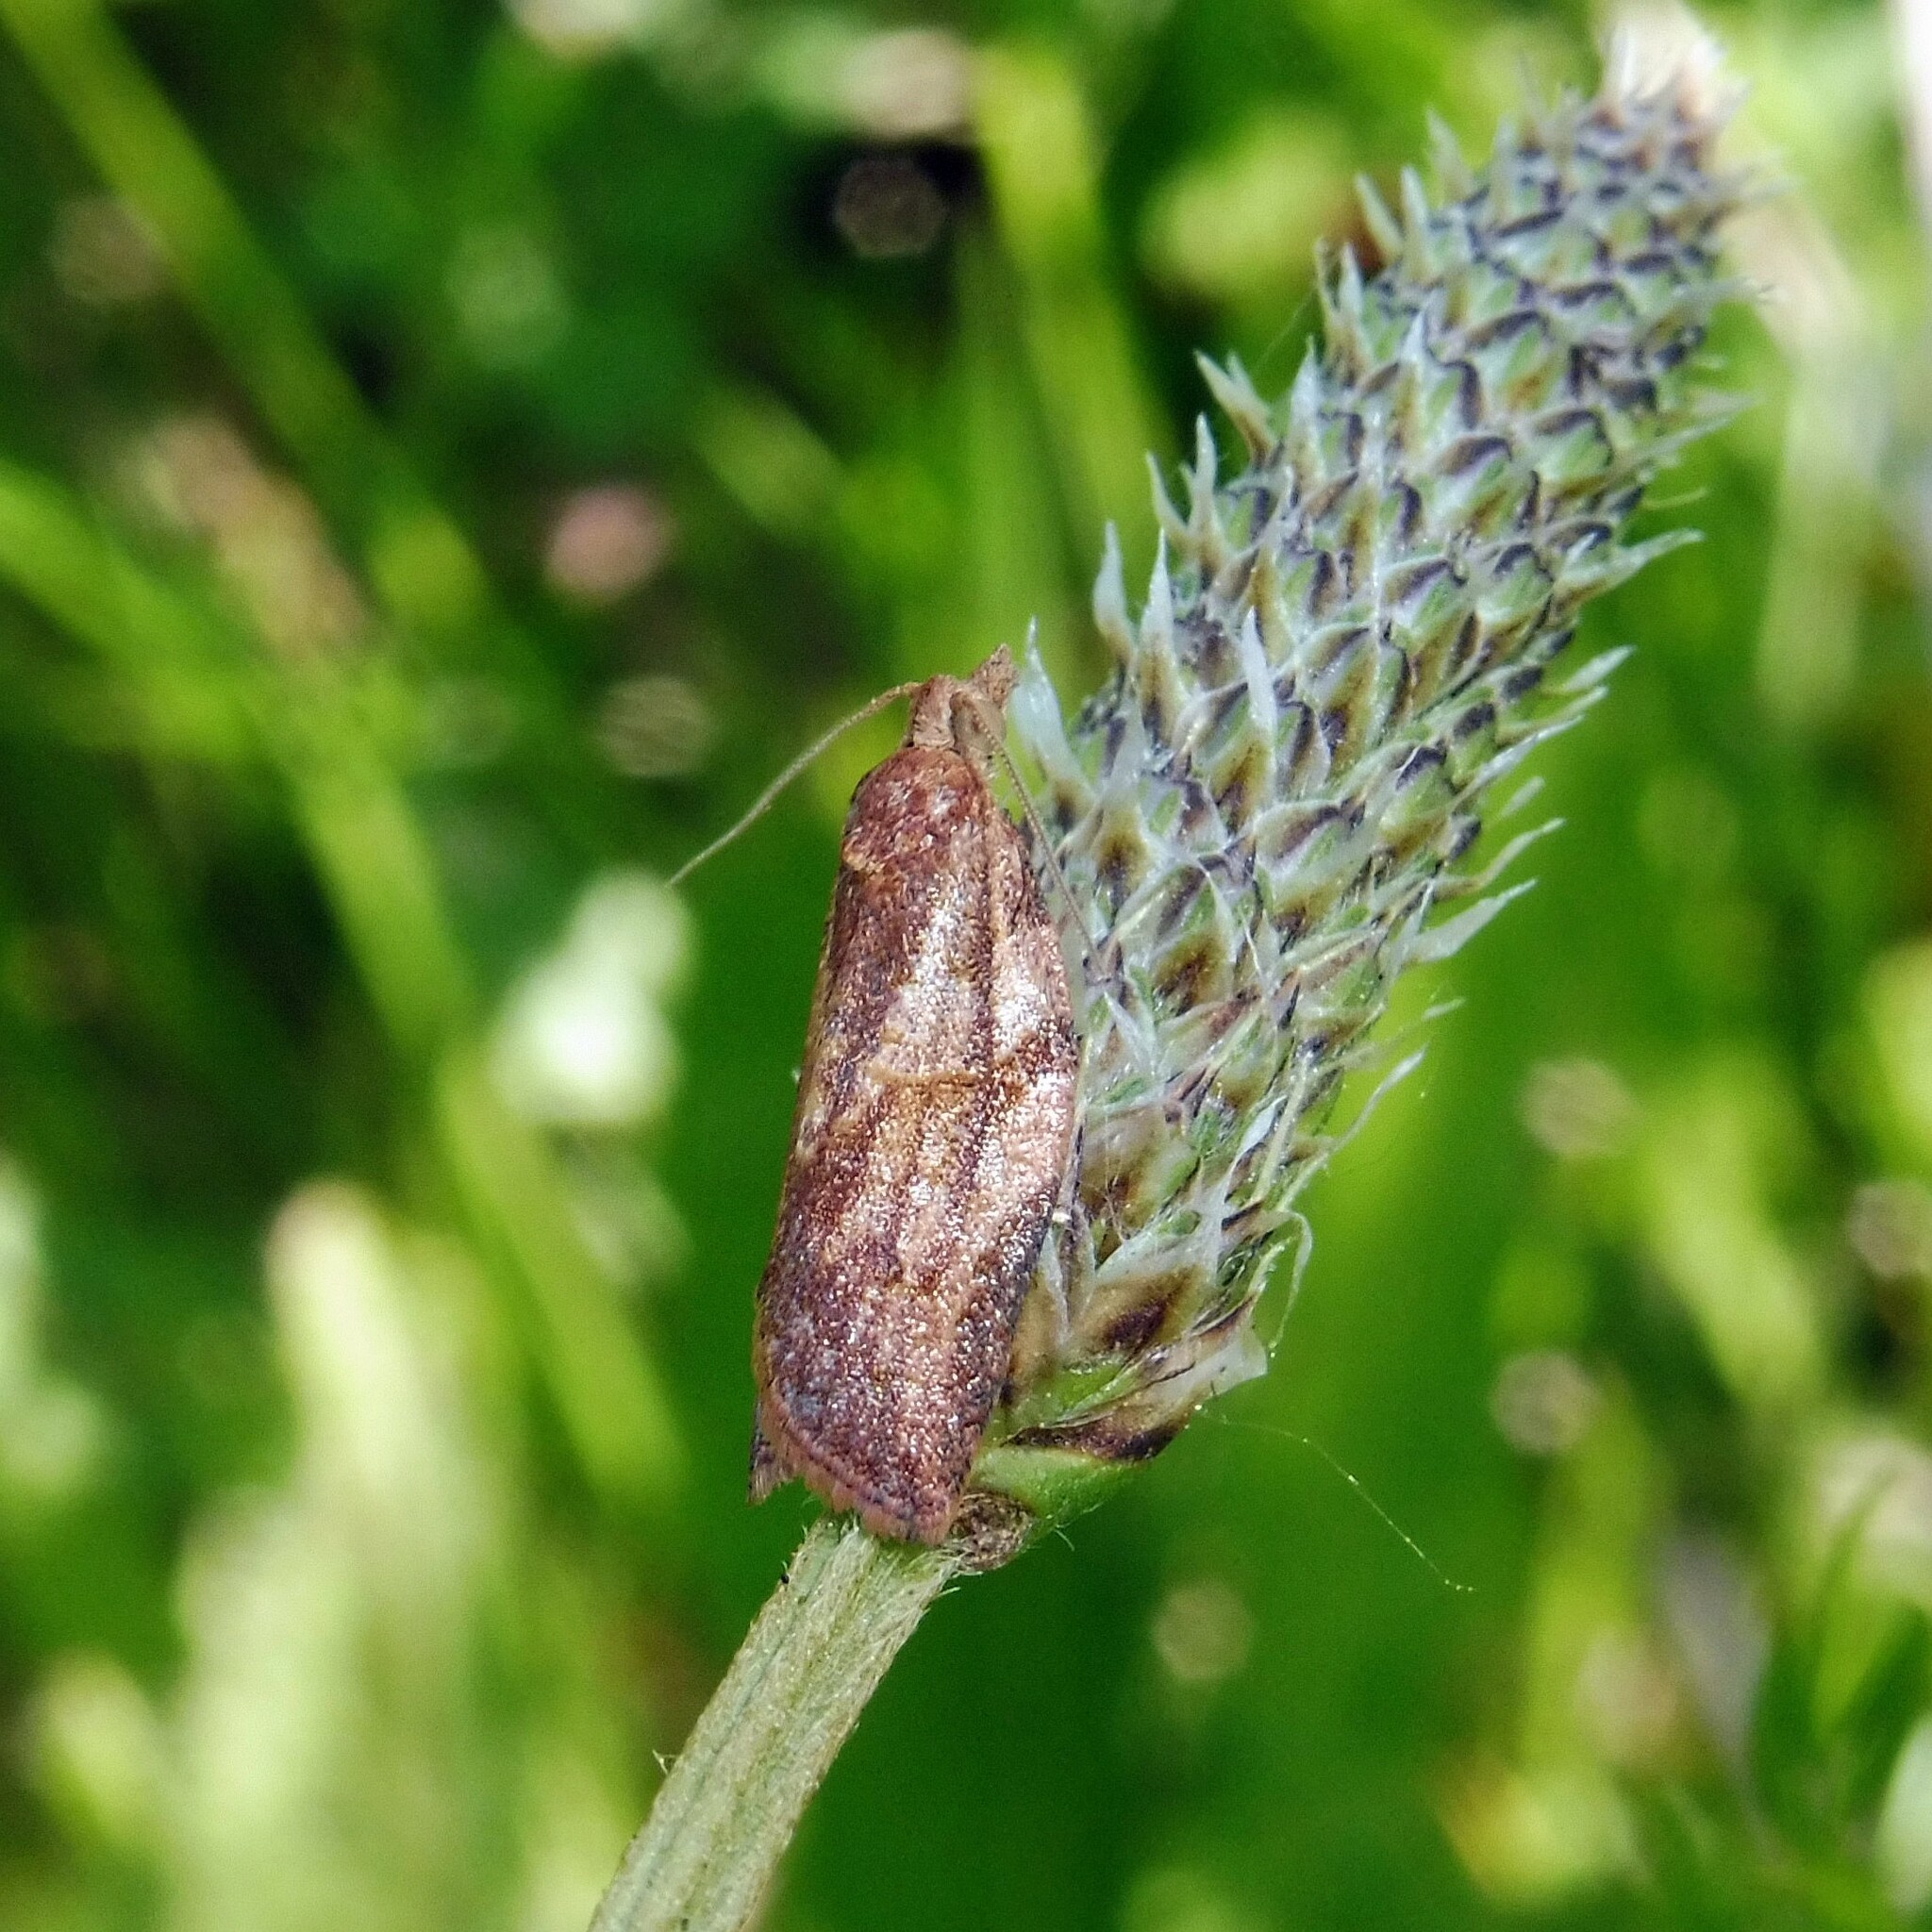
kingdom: Animalia
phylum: Arthropoda
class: Insecta
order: Lepidoptera
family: Tortricidae
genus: Epiphyas
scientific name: Epiphyas postvittana
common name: Light brown apple moth
